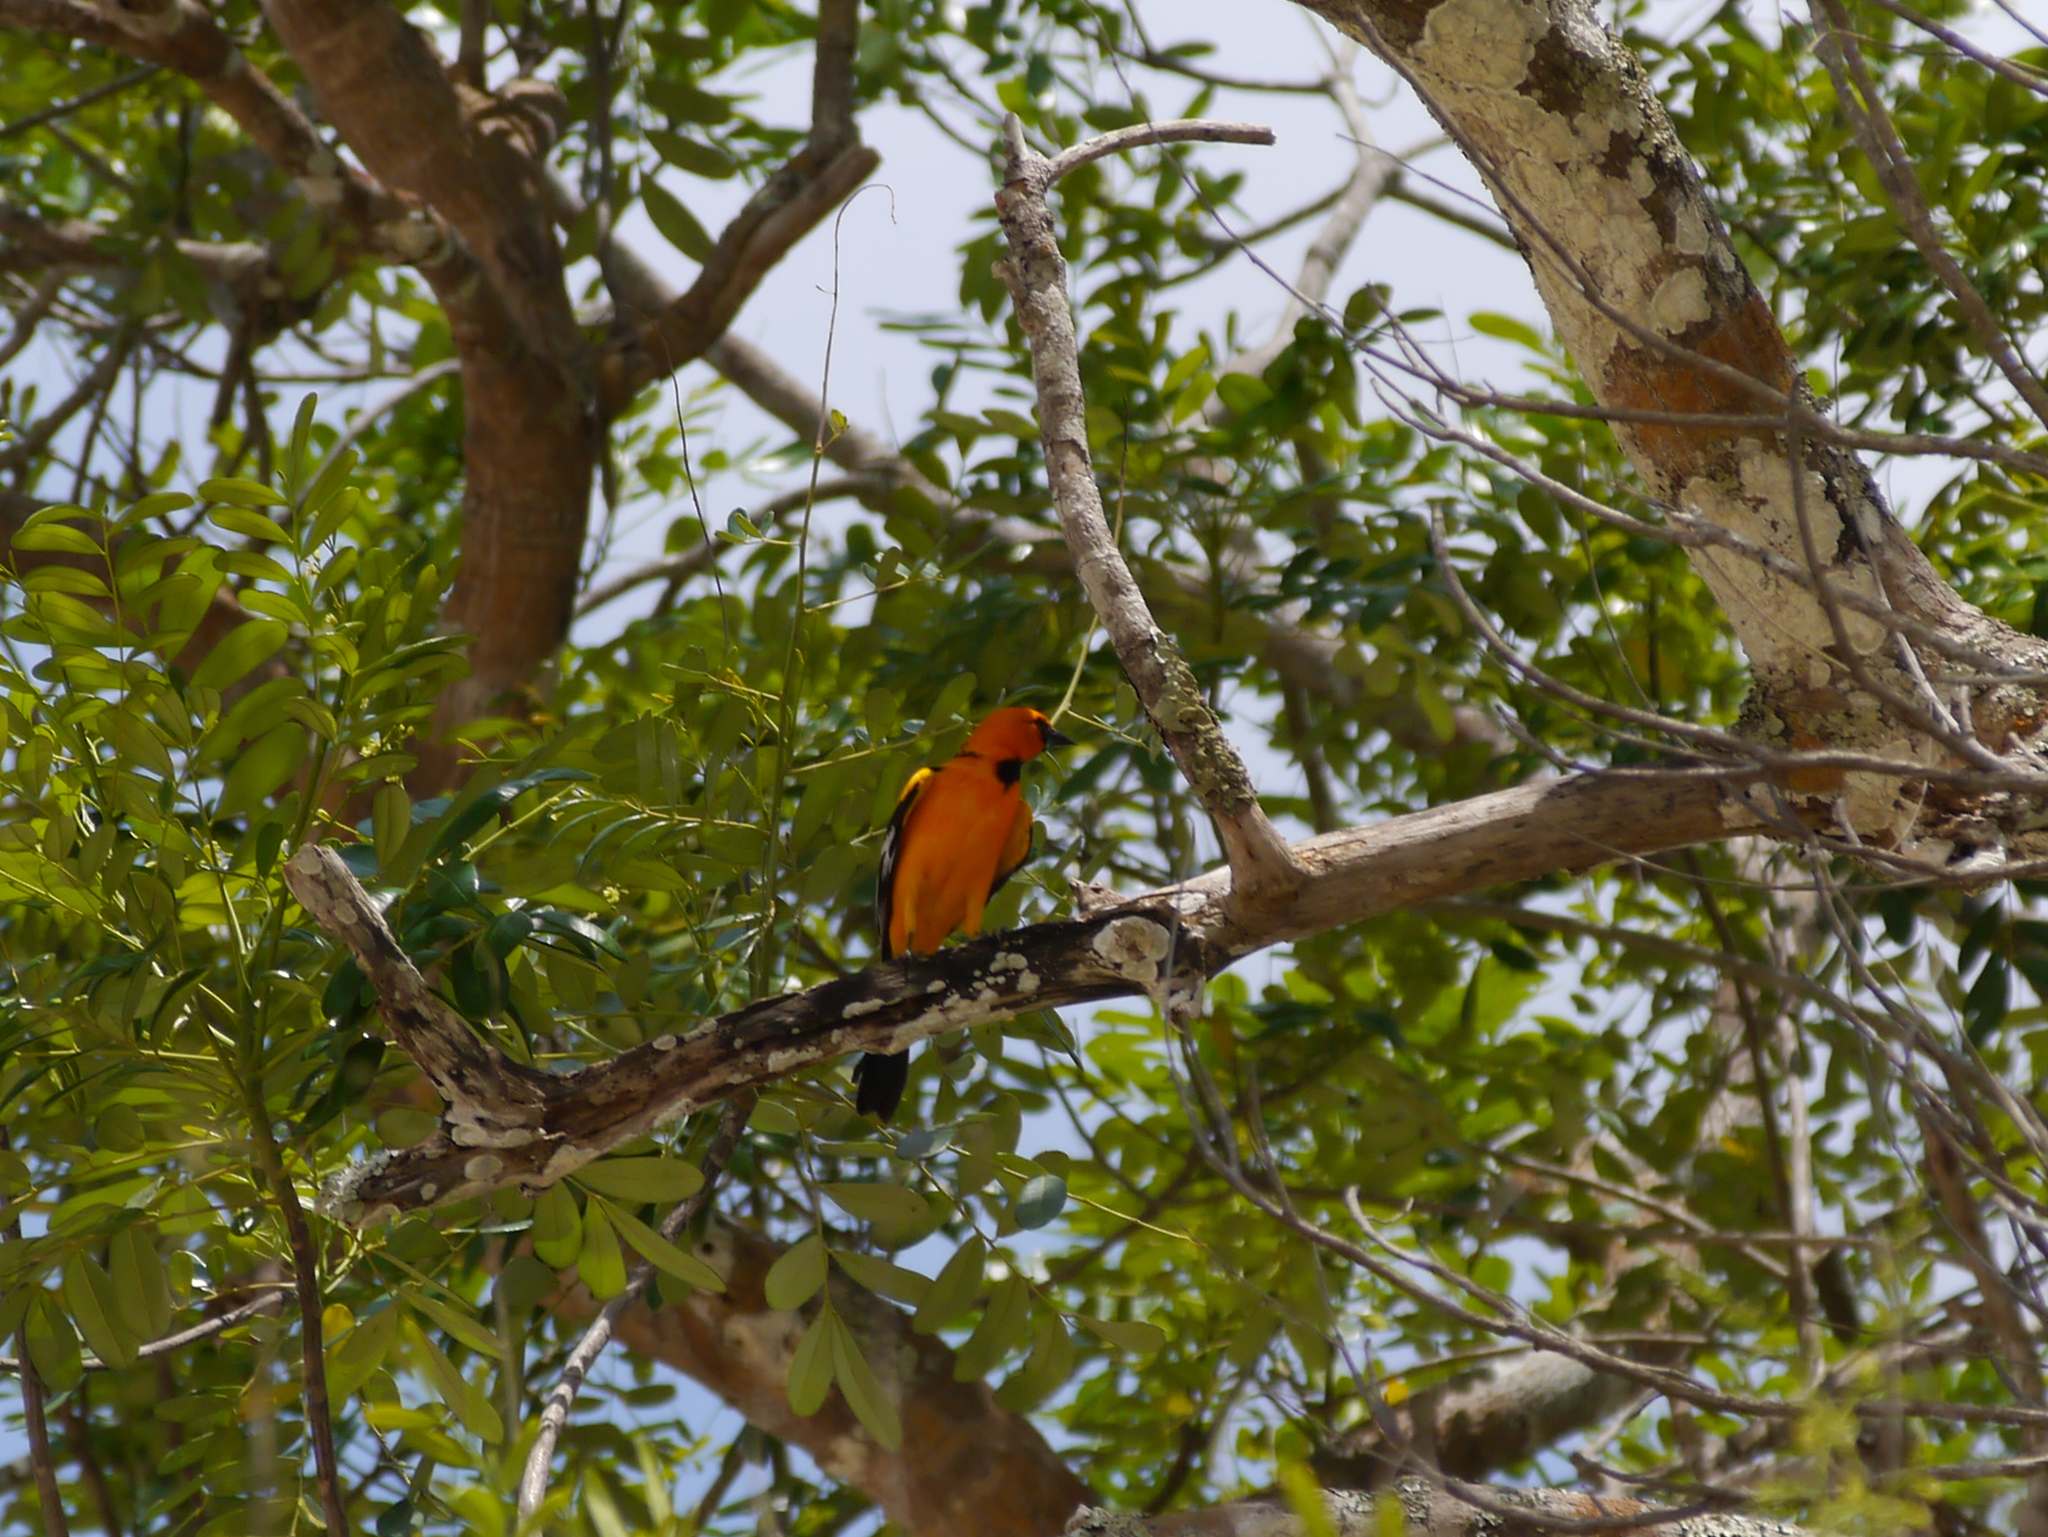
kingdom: Animalia
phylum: Chordata
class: Aves
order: Passeriformes
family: Icteridae
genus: Icterus
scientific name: Icterus gularis
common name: Altamira oriole
